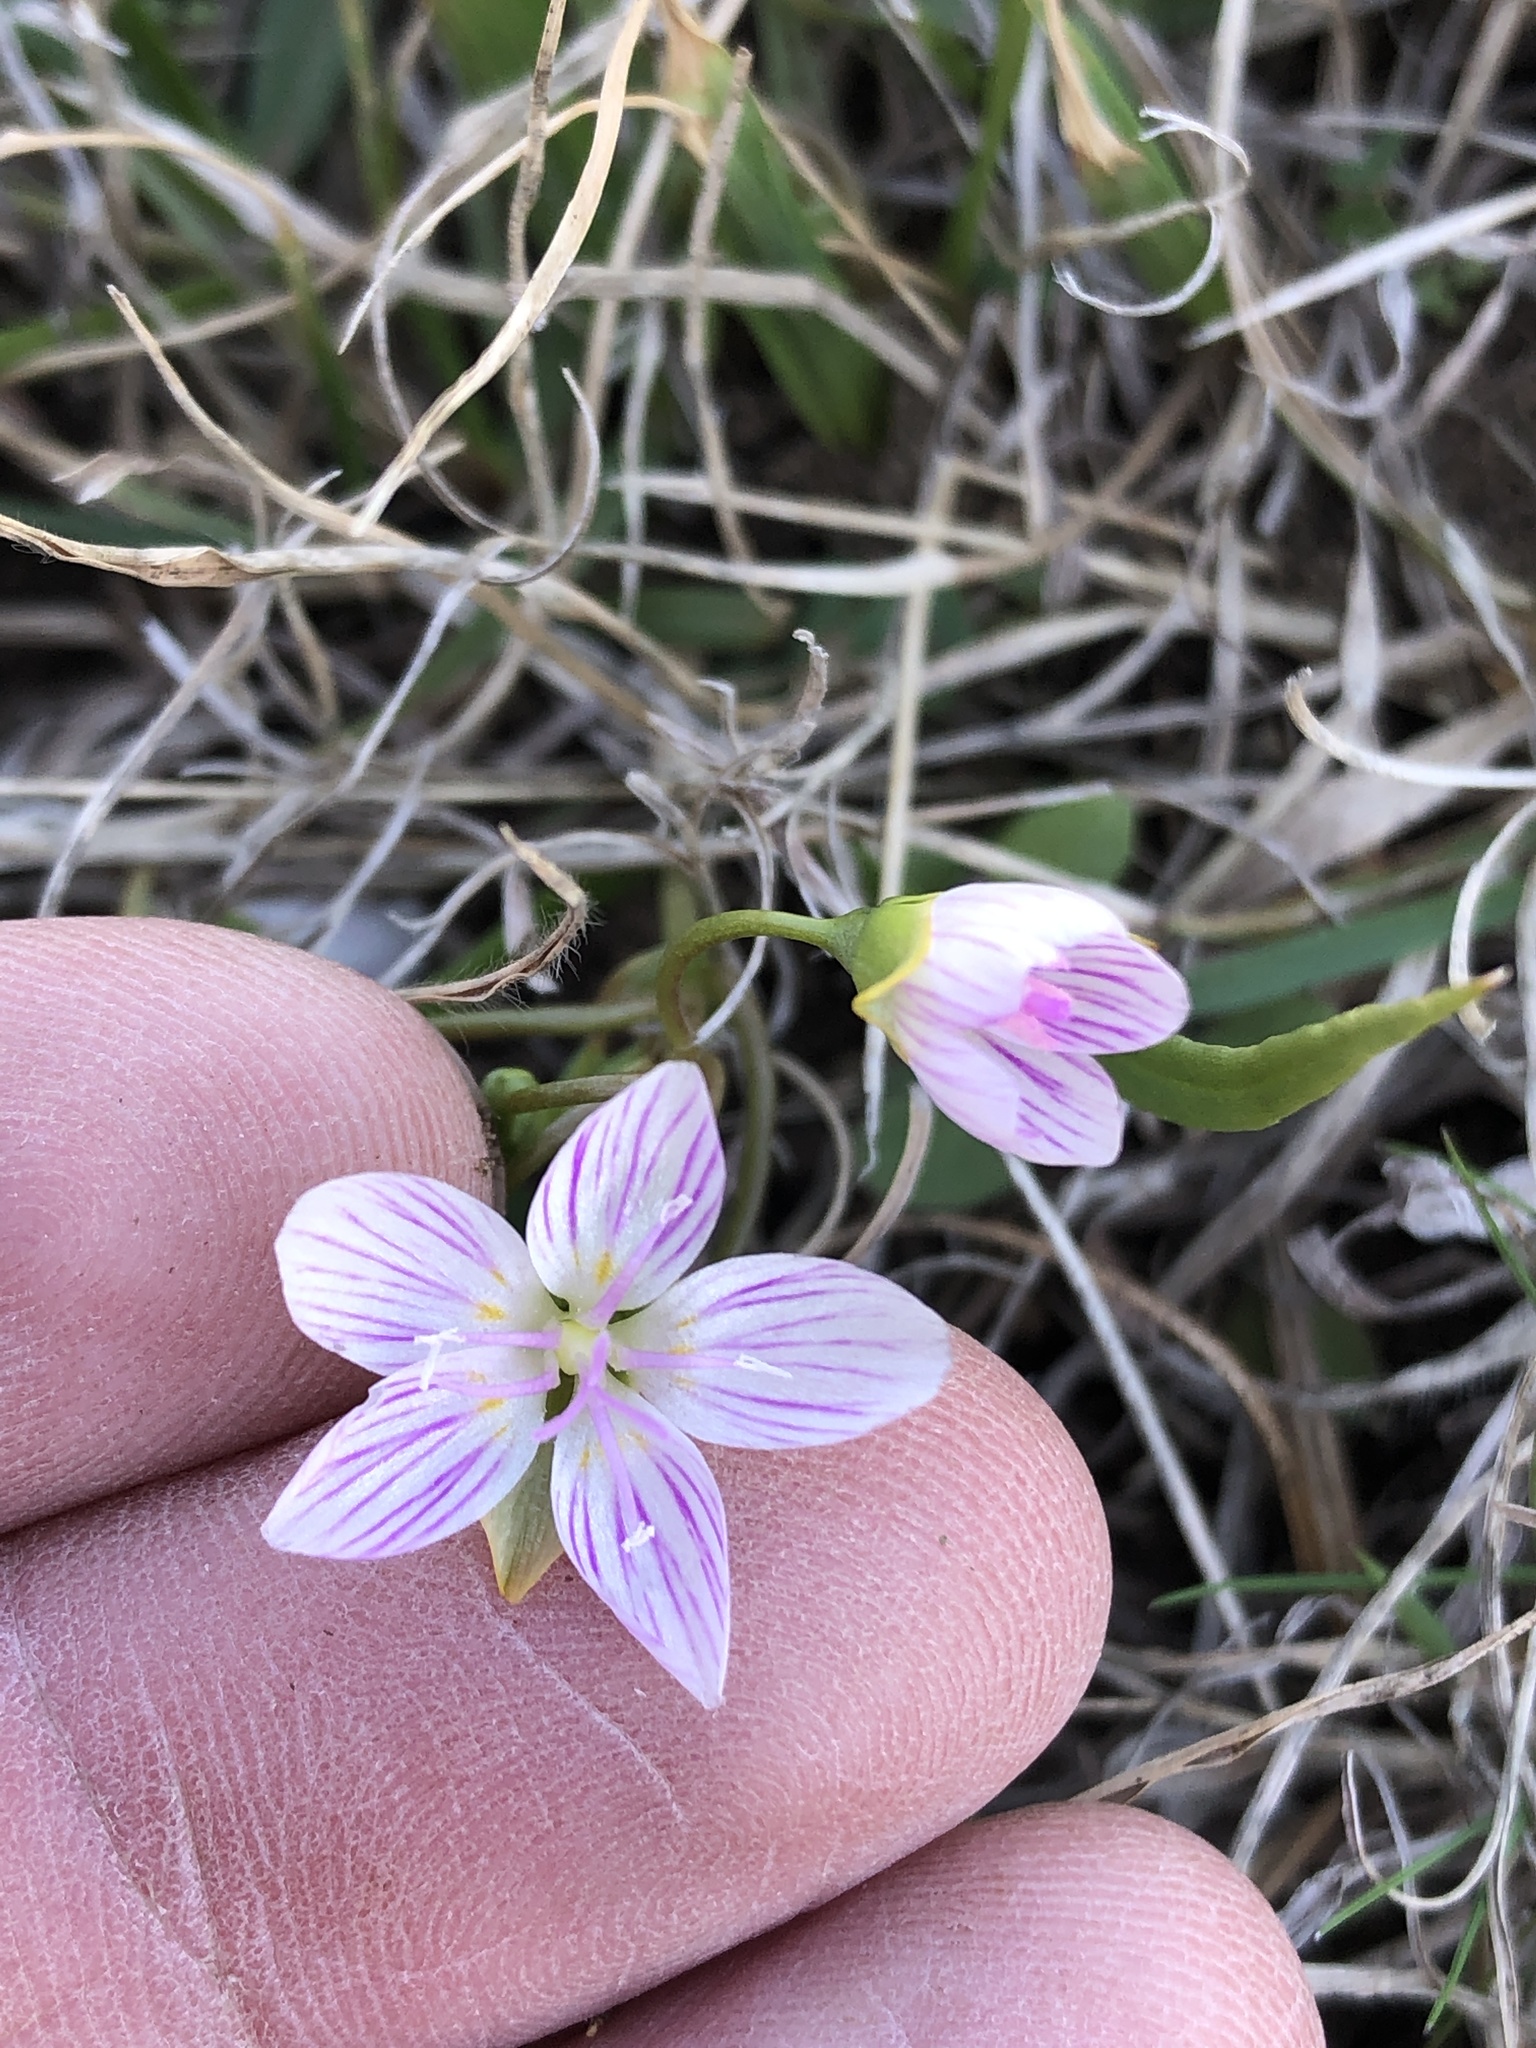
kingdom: Plantae
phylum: Tracheophyta
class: Magnoliopsida
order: Caryophyllales
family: Montiaceae
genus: Claytonia
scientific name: Claytonia virginica
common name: Virginia springbeauty
